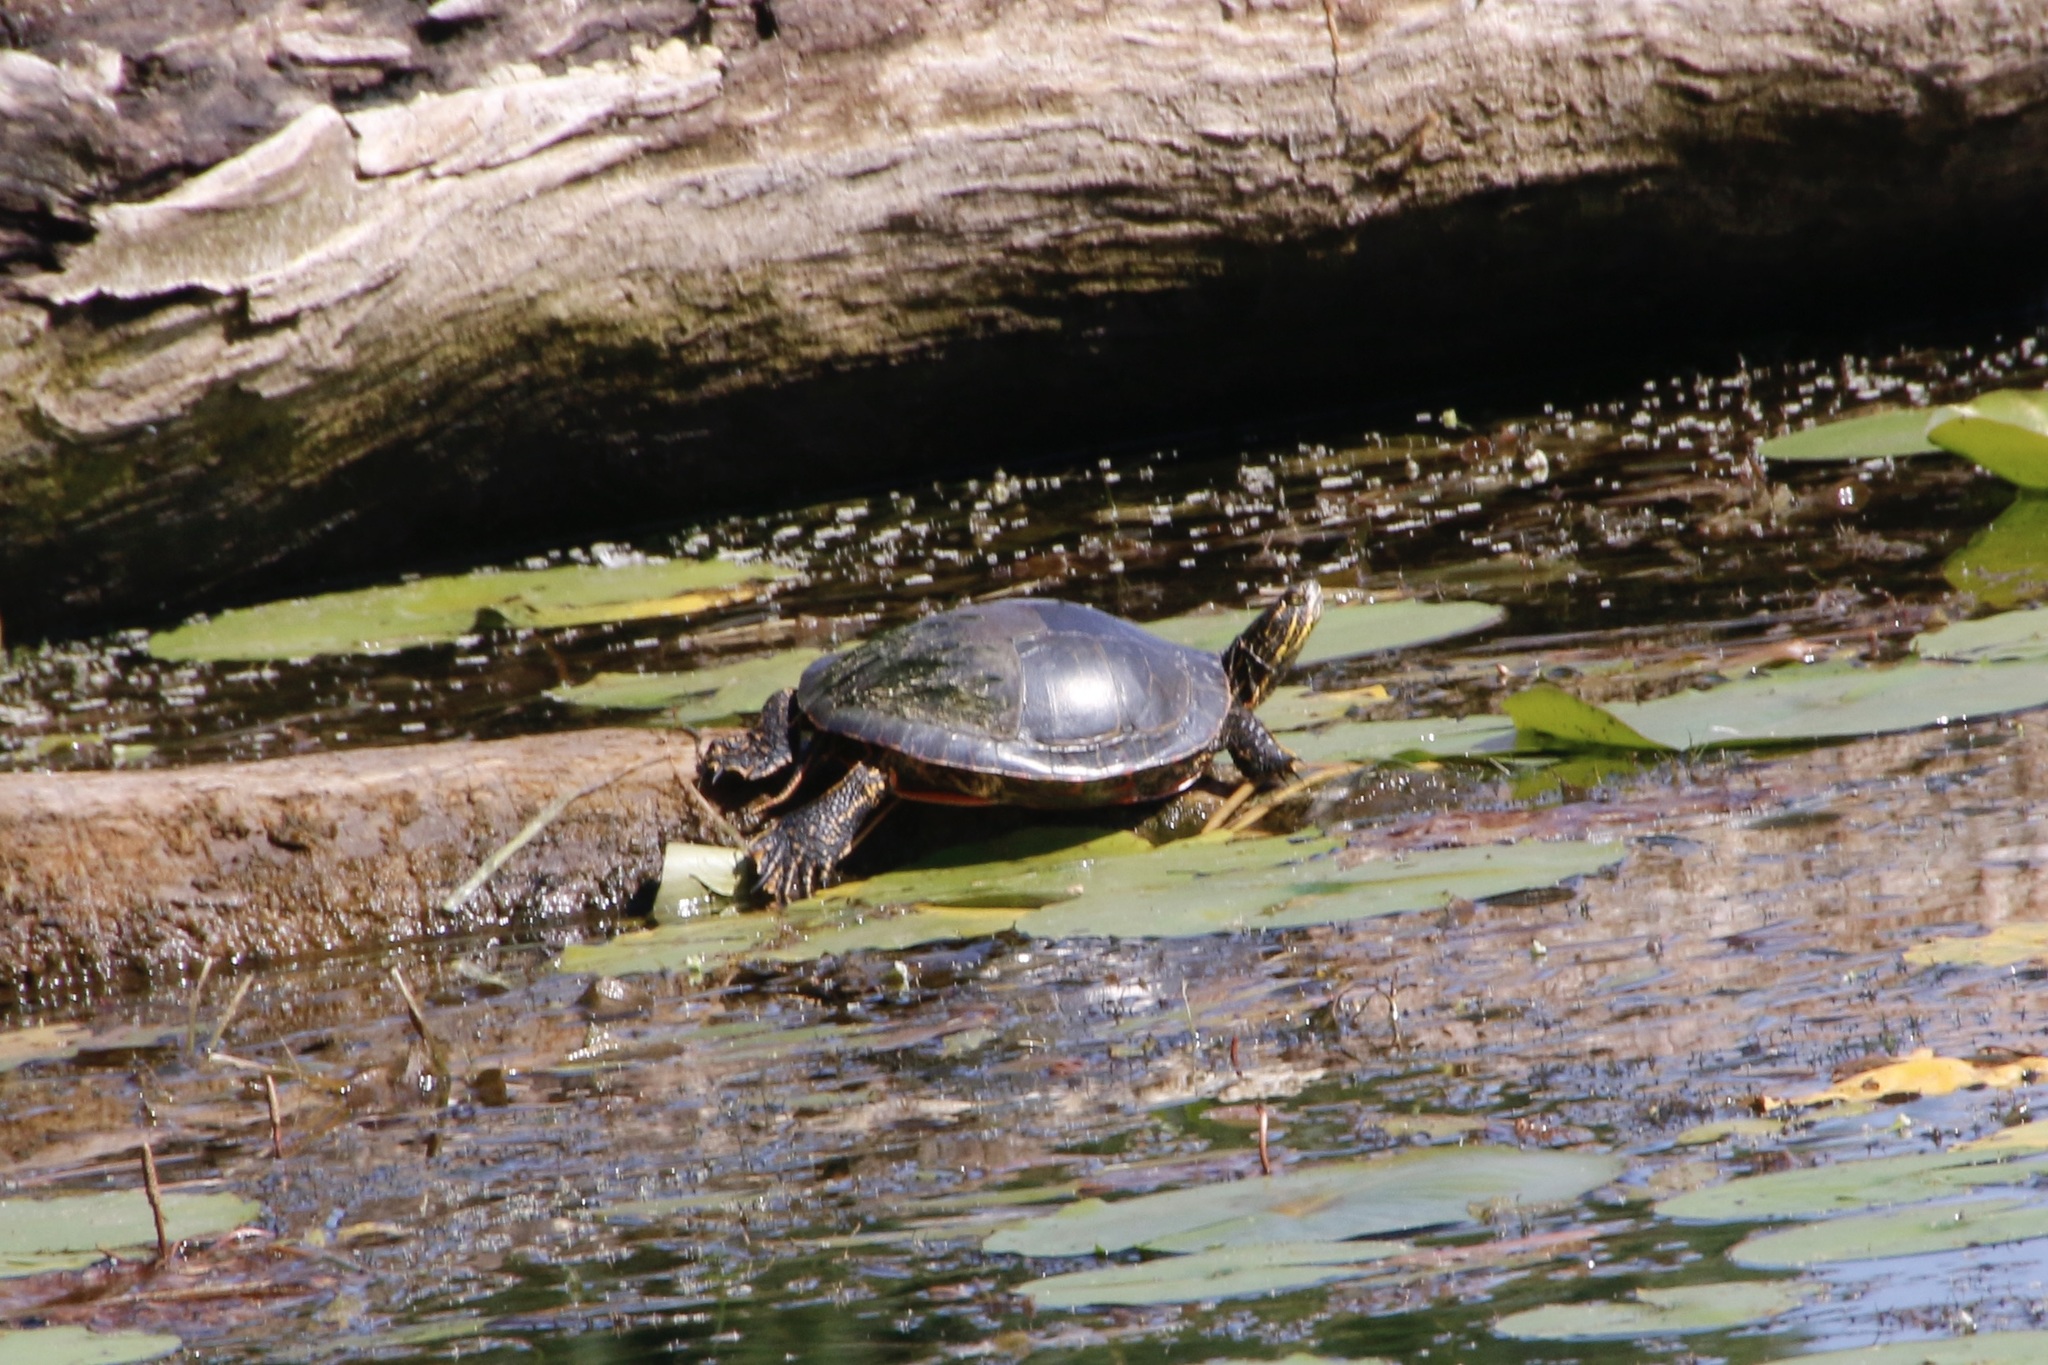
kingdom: Animalia
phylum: Chordata
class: Testudines
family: Emydidae
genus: Chrysemys
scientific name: Chrysemys picta
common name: Painted turtle
